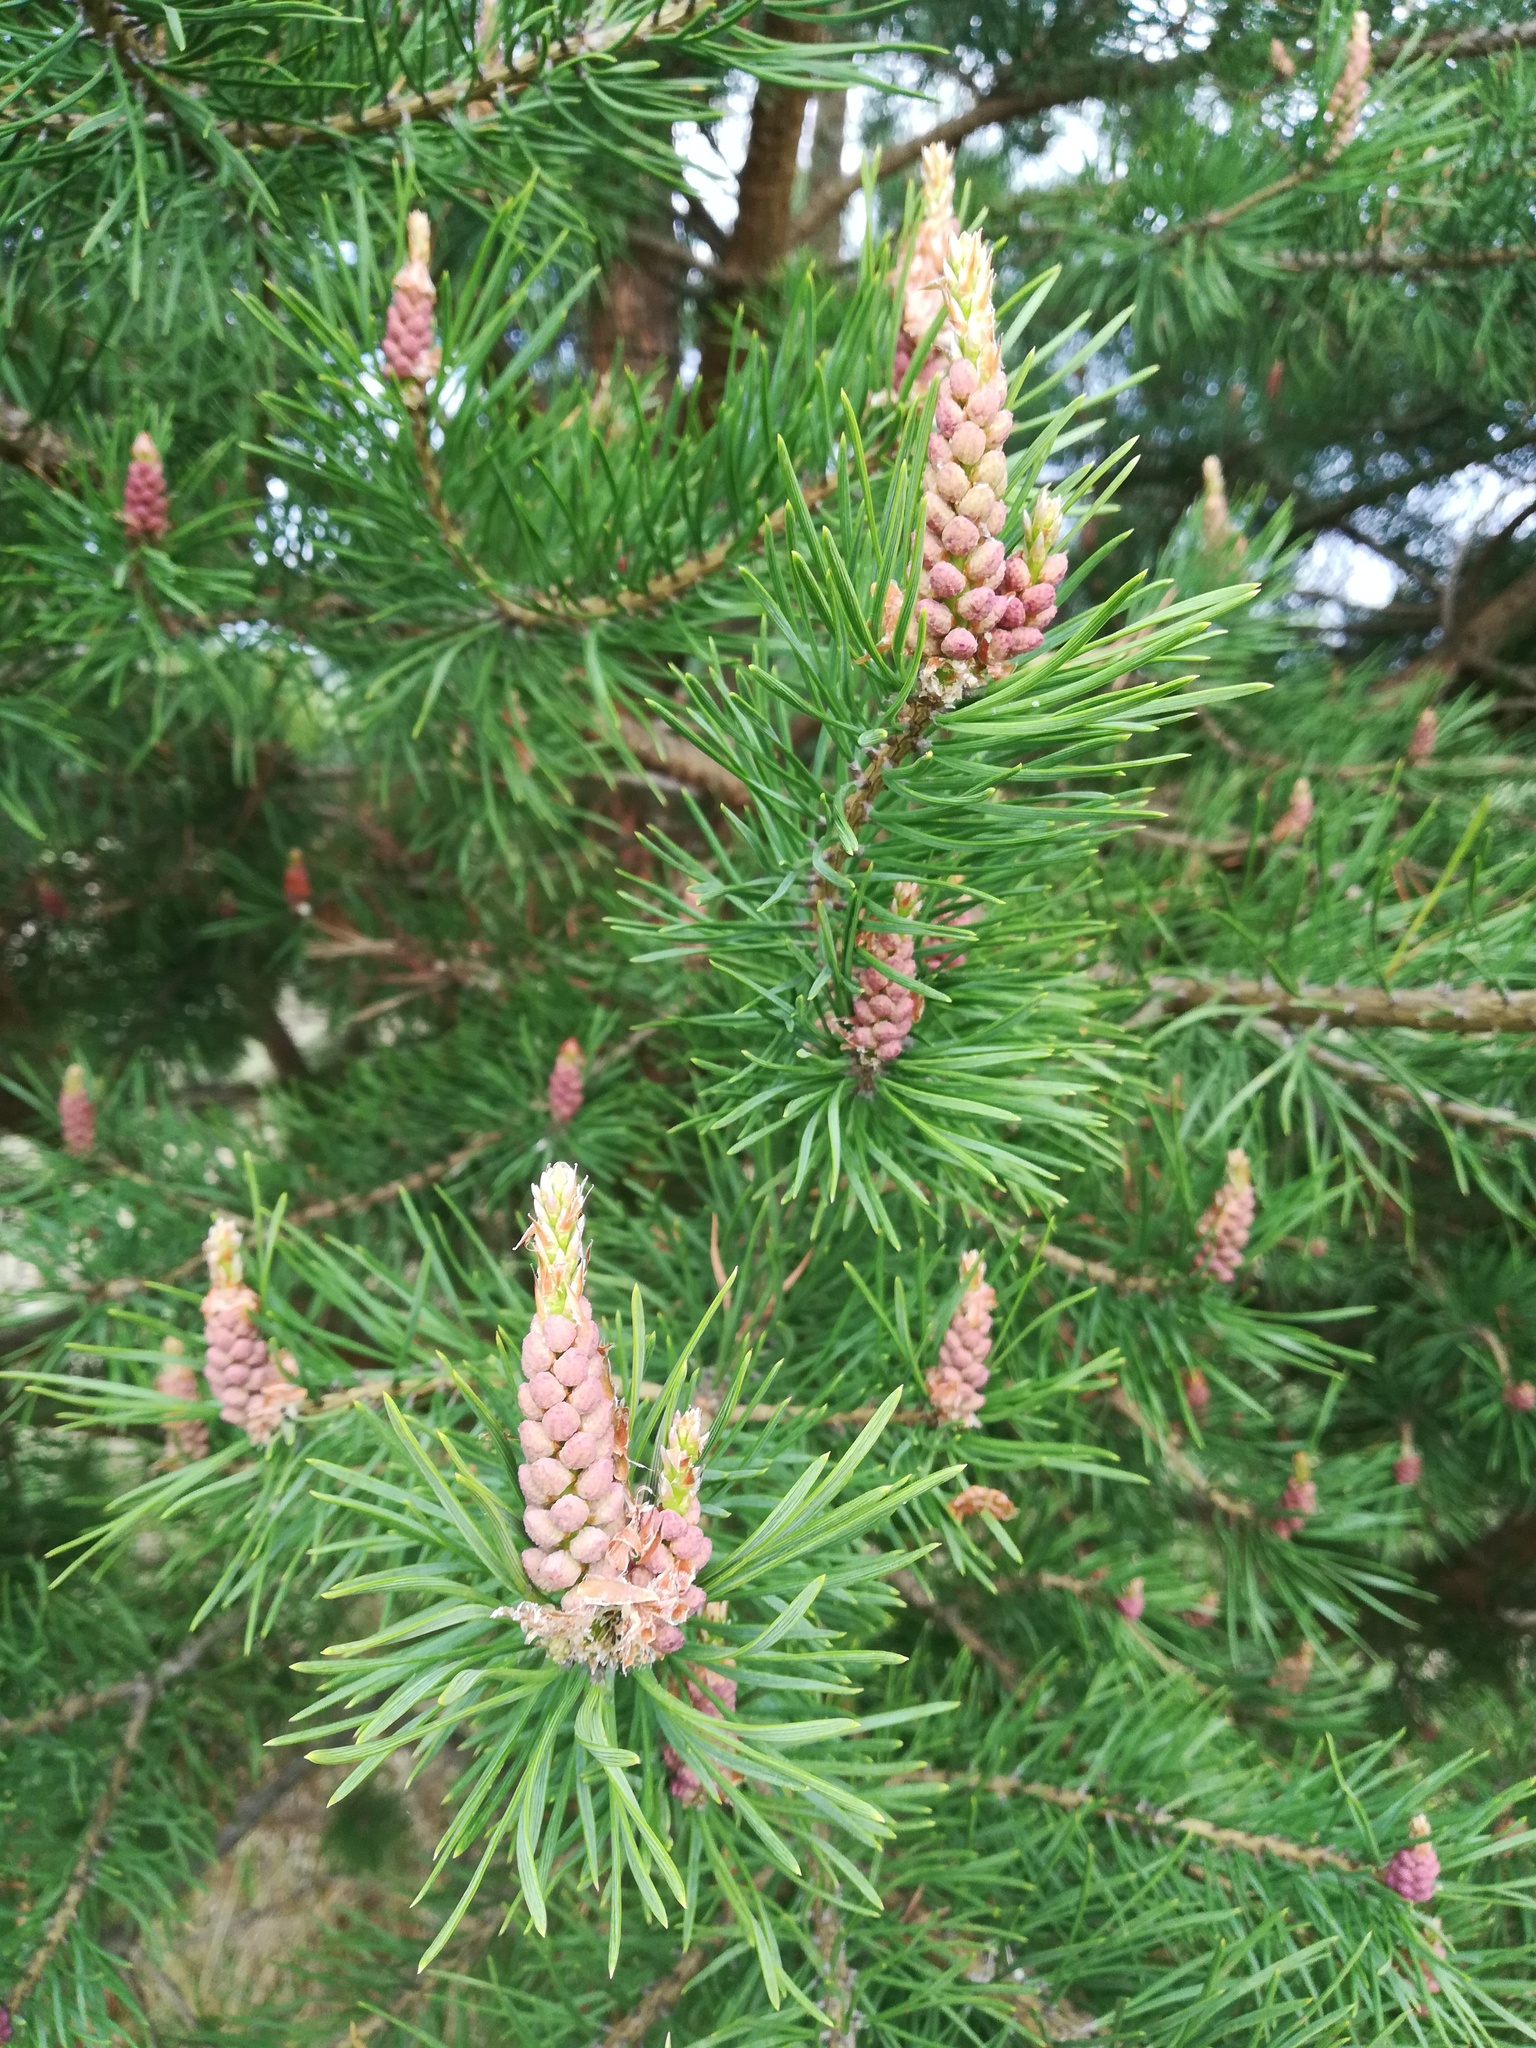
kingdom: Plantae
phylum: Tracheophyta
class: Pinopsida
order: Pinales
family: Pinaceae
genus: Pinus
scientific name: Pinus sylvestris
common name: Scots pine
